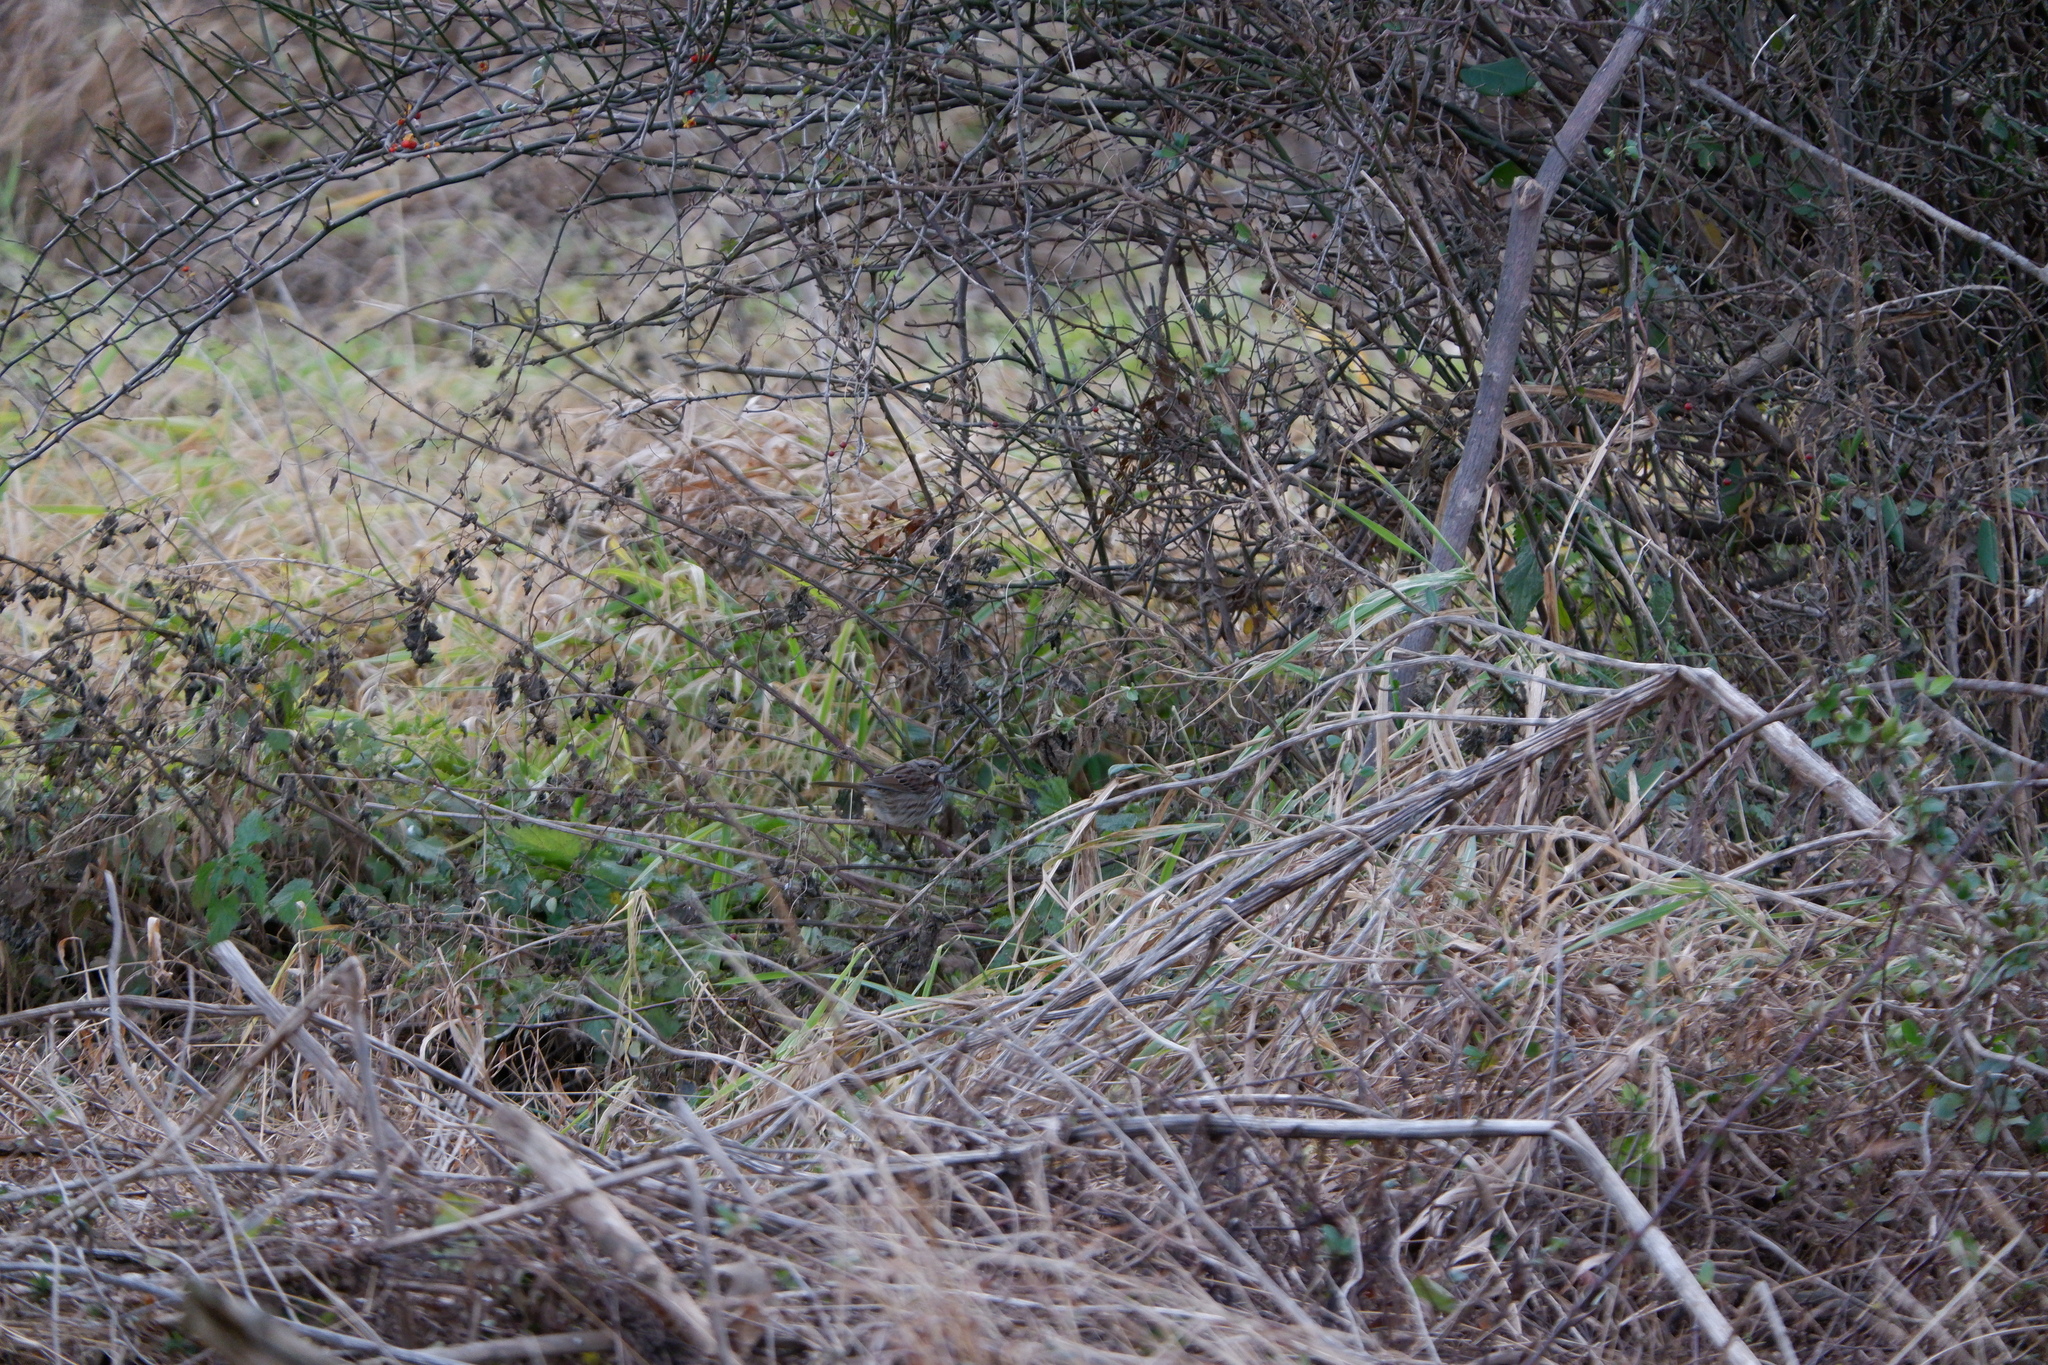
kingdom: Animalia
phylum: Chordata
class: Aves
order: Passeriformes
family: Passerellidae
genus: Melospiza
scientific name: Melospiza melodia
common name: Song sparrow
